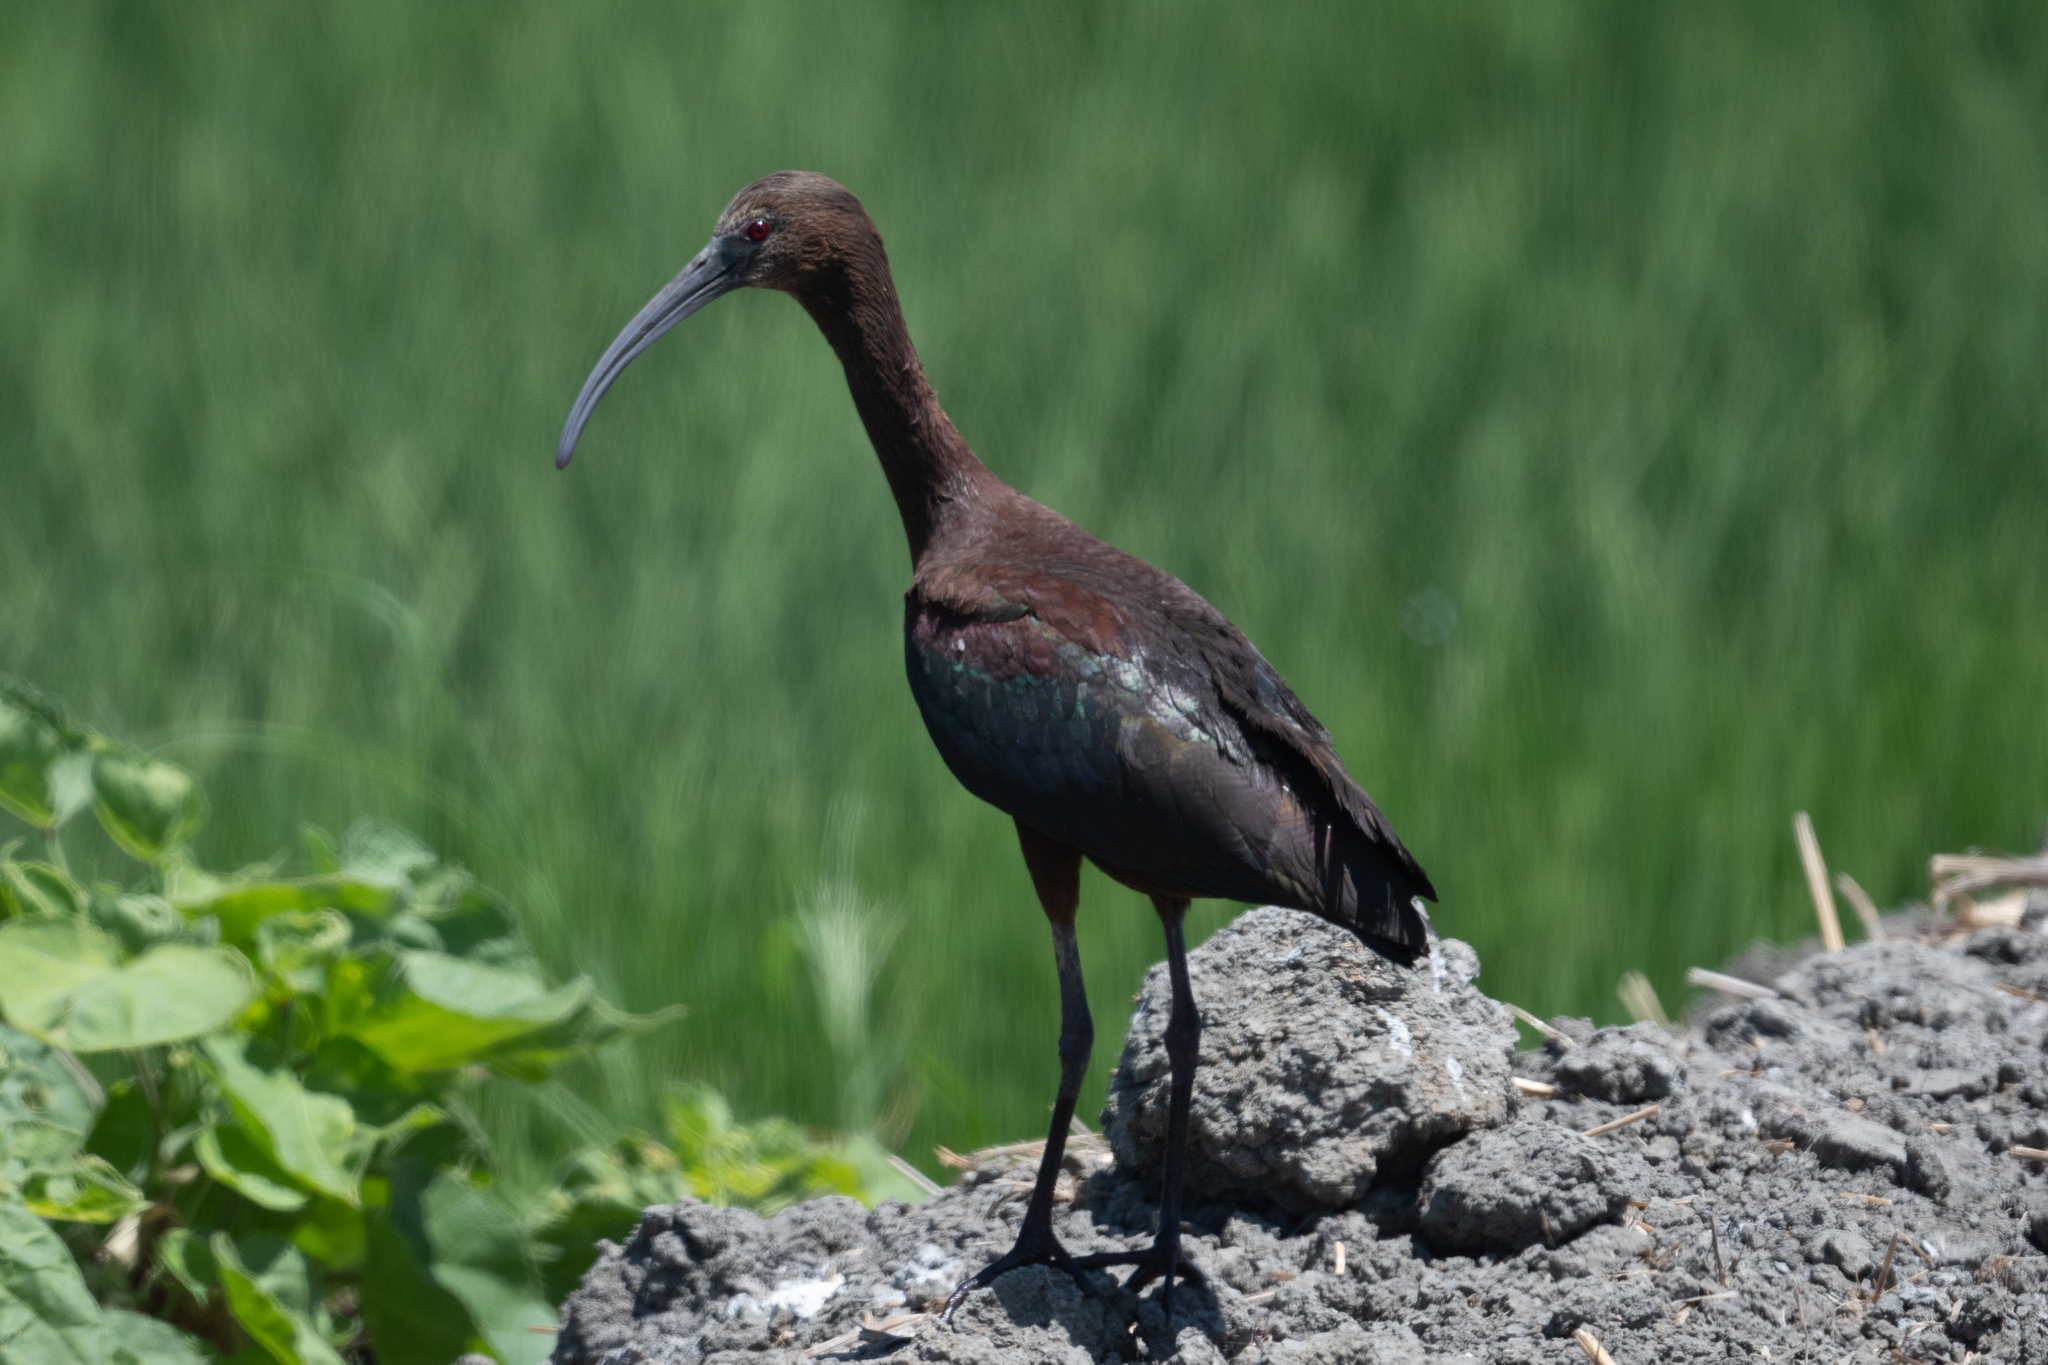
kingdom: Animalia
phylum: Chordata
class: Aves
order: Pelecaniformes
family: Threskiornithidae
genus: Plegadis
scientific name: Plegadis chihi
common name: White-faced ibis
